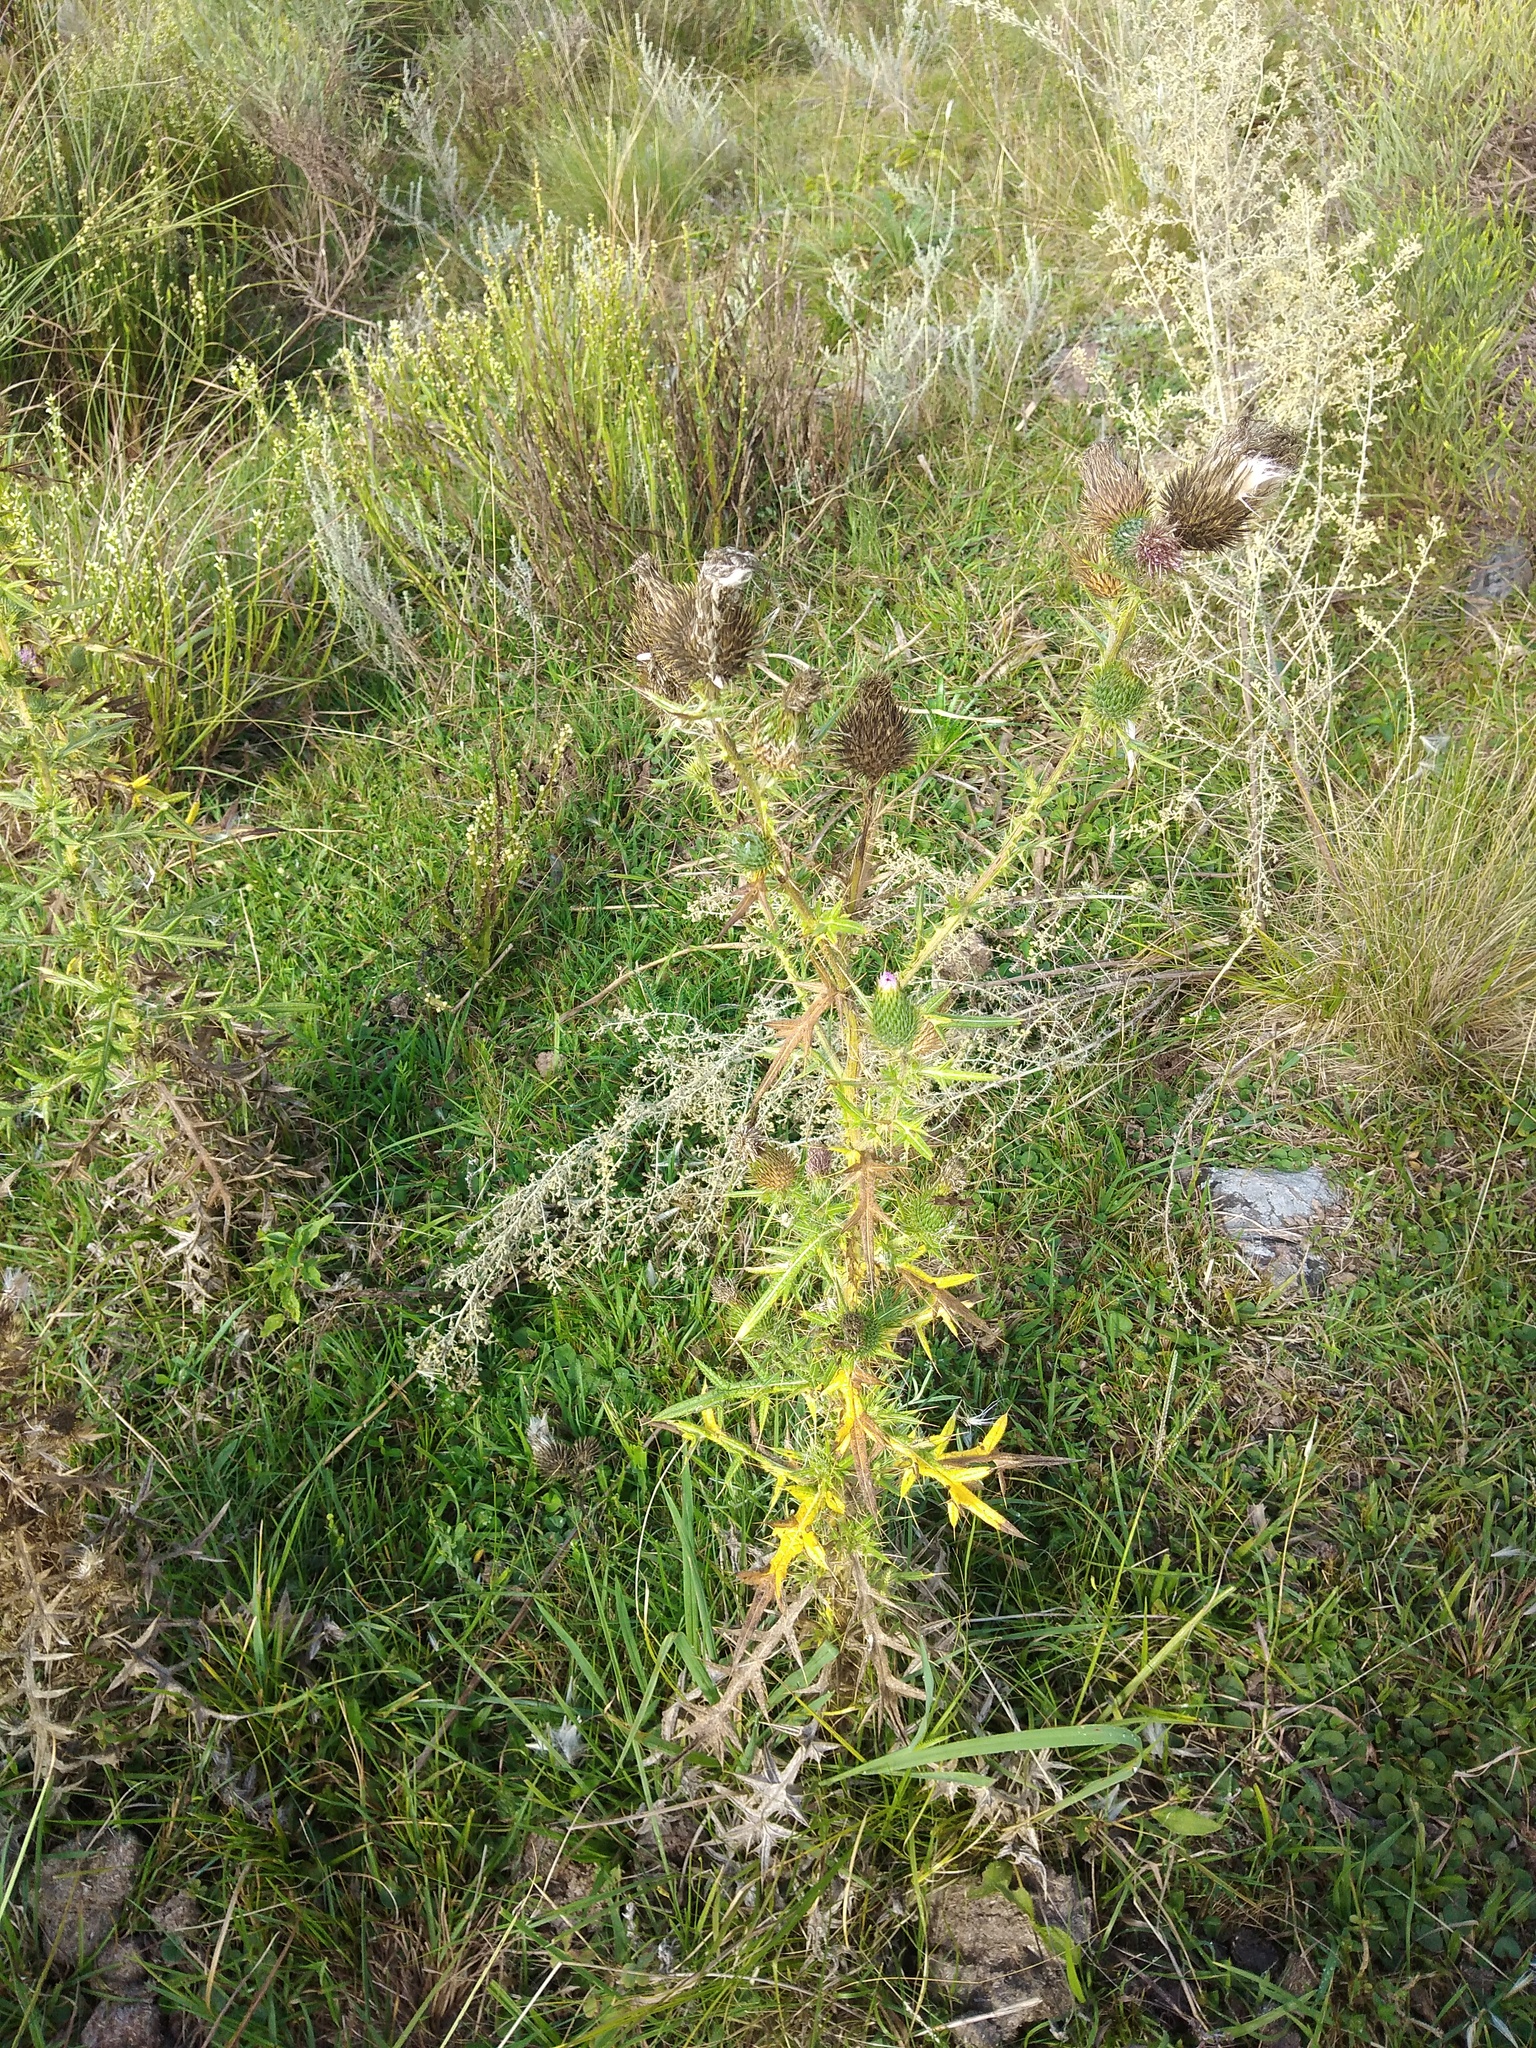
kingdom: Plantae
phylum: Tracheophyta
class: Magnoliopsida
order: Asterales
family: Asteraceae
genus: Cirsium
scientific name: Cirsium vulgare
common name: Bull thistle
